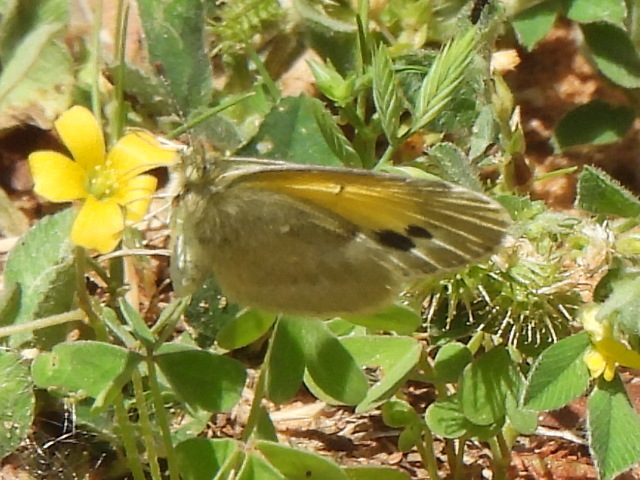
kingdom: Animalia
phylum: Arthropoda
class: Insecta
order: Lepidoptera
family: Pieridae
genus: Nathalis
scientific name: Nathalis iole
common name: Dainty sulphur
